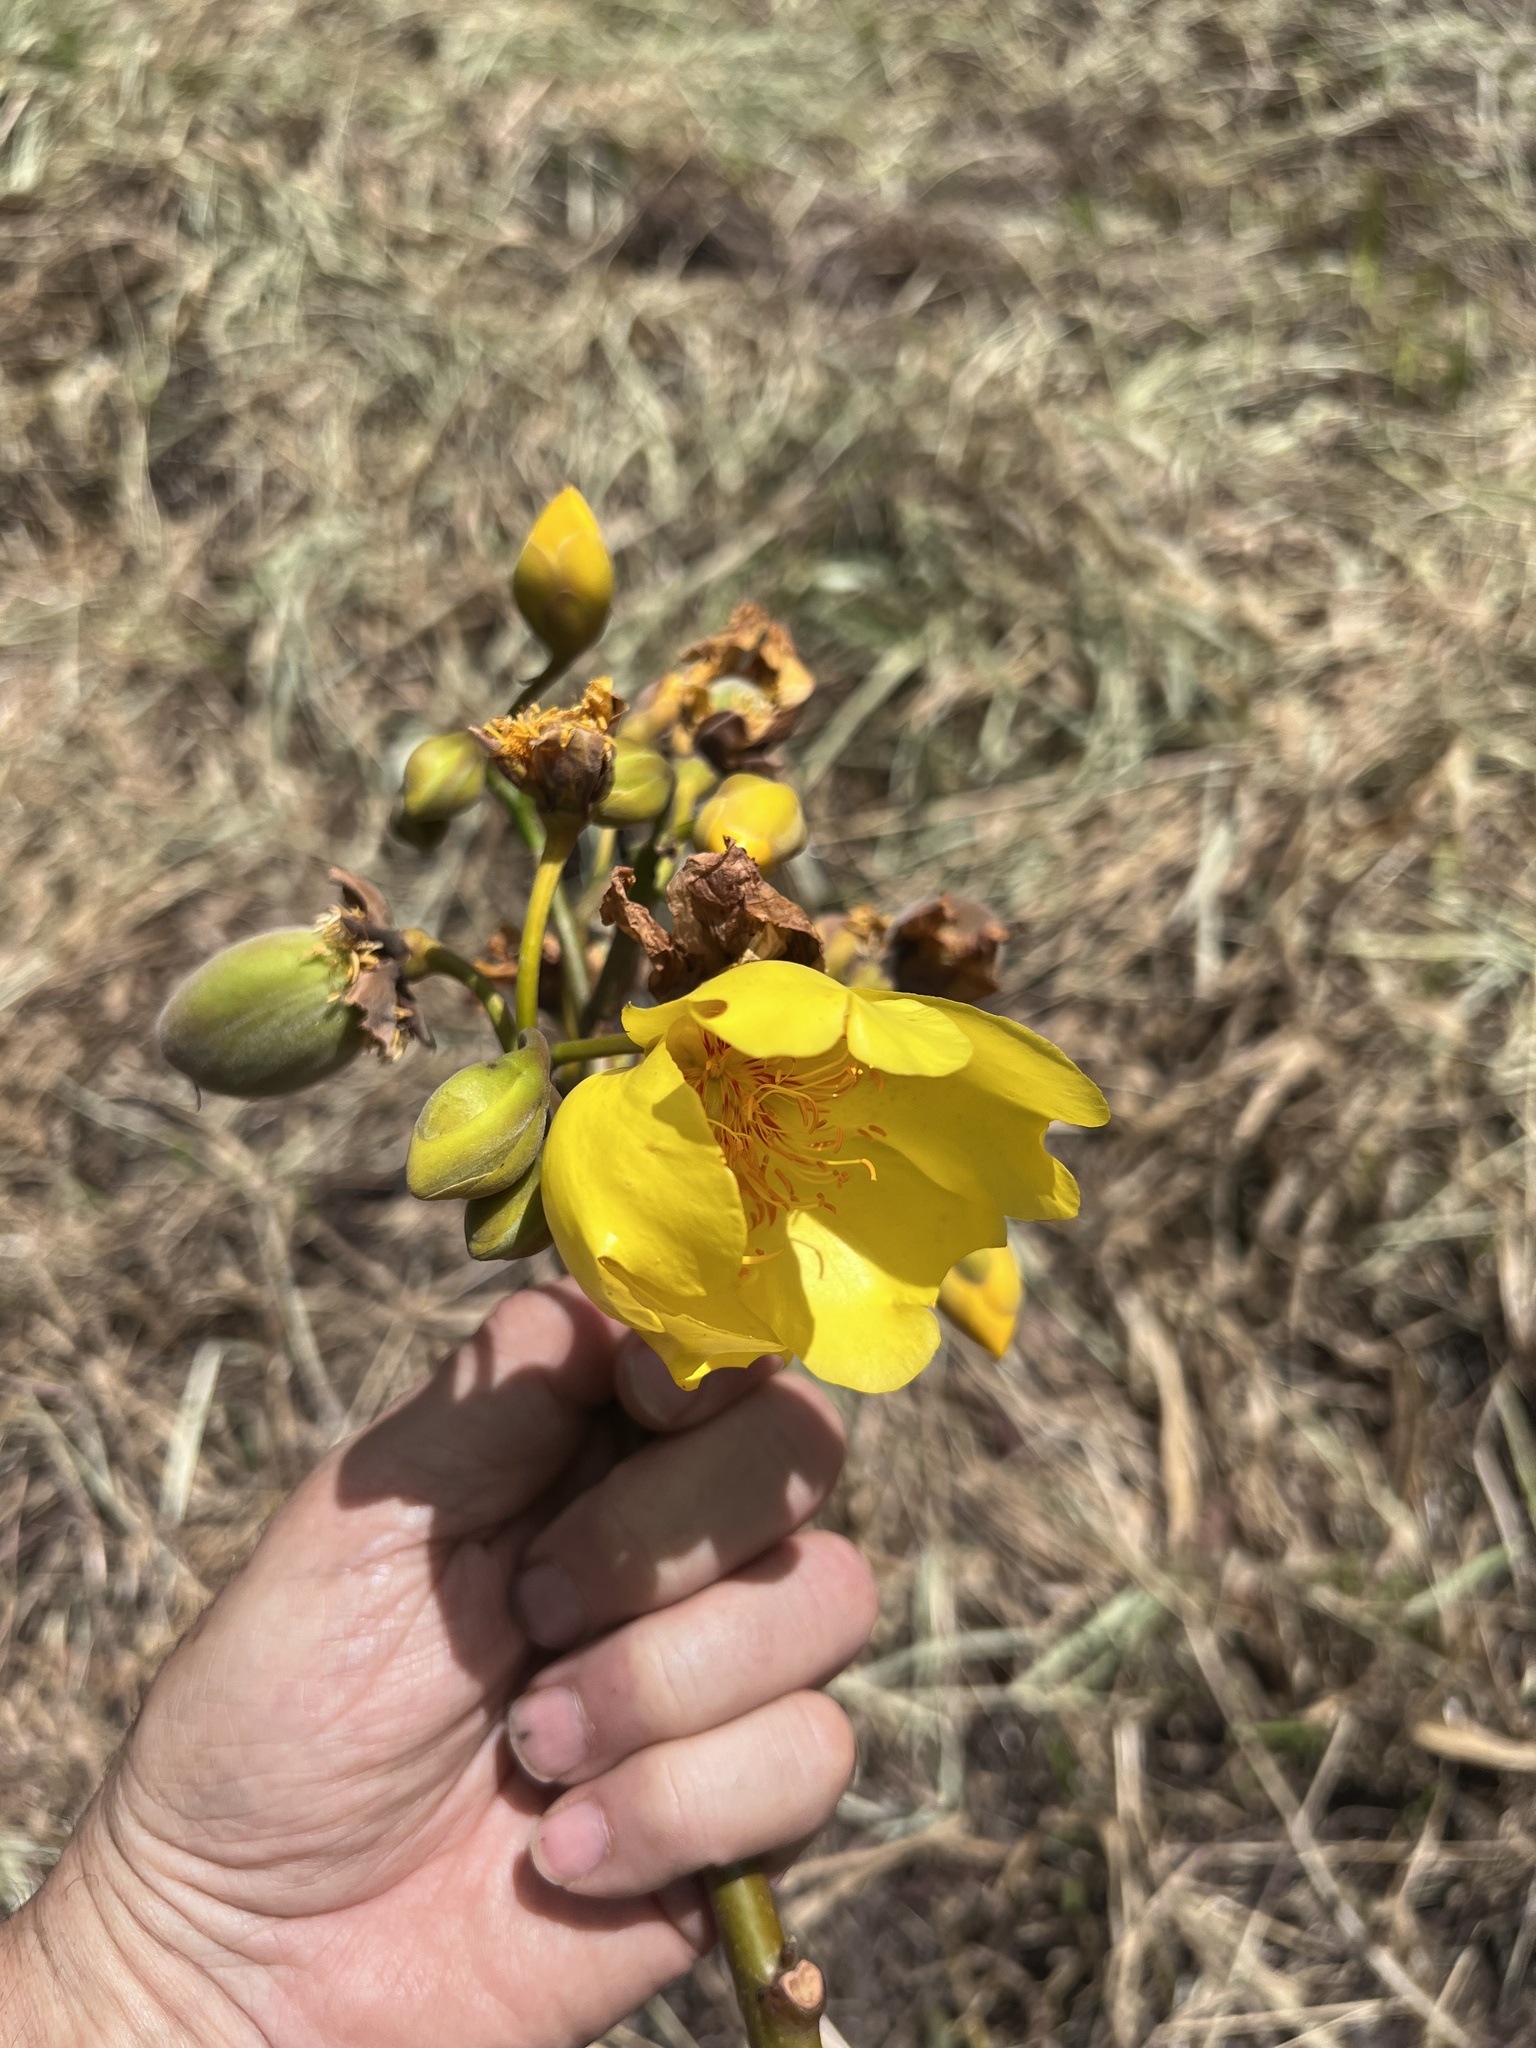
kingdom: Plantae
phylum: Tracheophyta
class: Magnoliopsida
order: Malvales
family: Cochlospermaceae
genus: Cochlospermum
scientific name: Cochlospermum vitifolium
